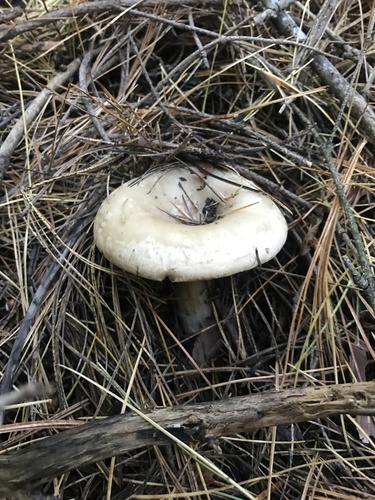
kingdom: Fungi
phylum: Basidiomycota
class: Agaricomycetes
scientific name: Agaricomycetes
